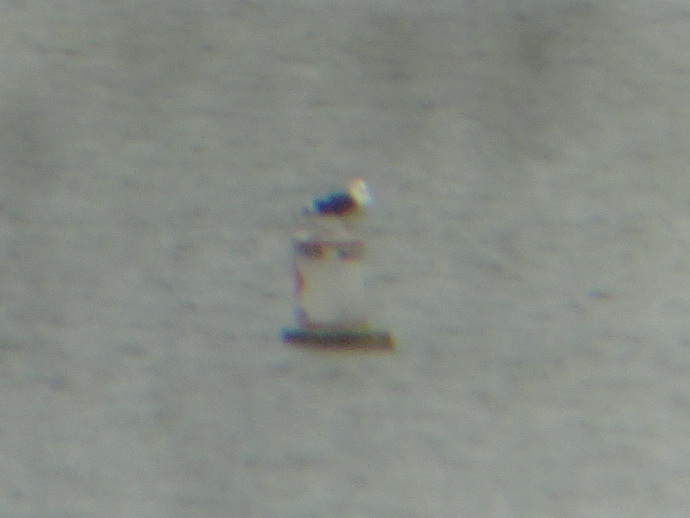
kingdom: Animalia
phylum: Chordata
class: Aves
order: Charadriiformes
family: Laridae
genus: Larus
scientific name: Larus marinus
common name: Great black-backed gull
